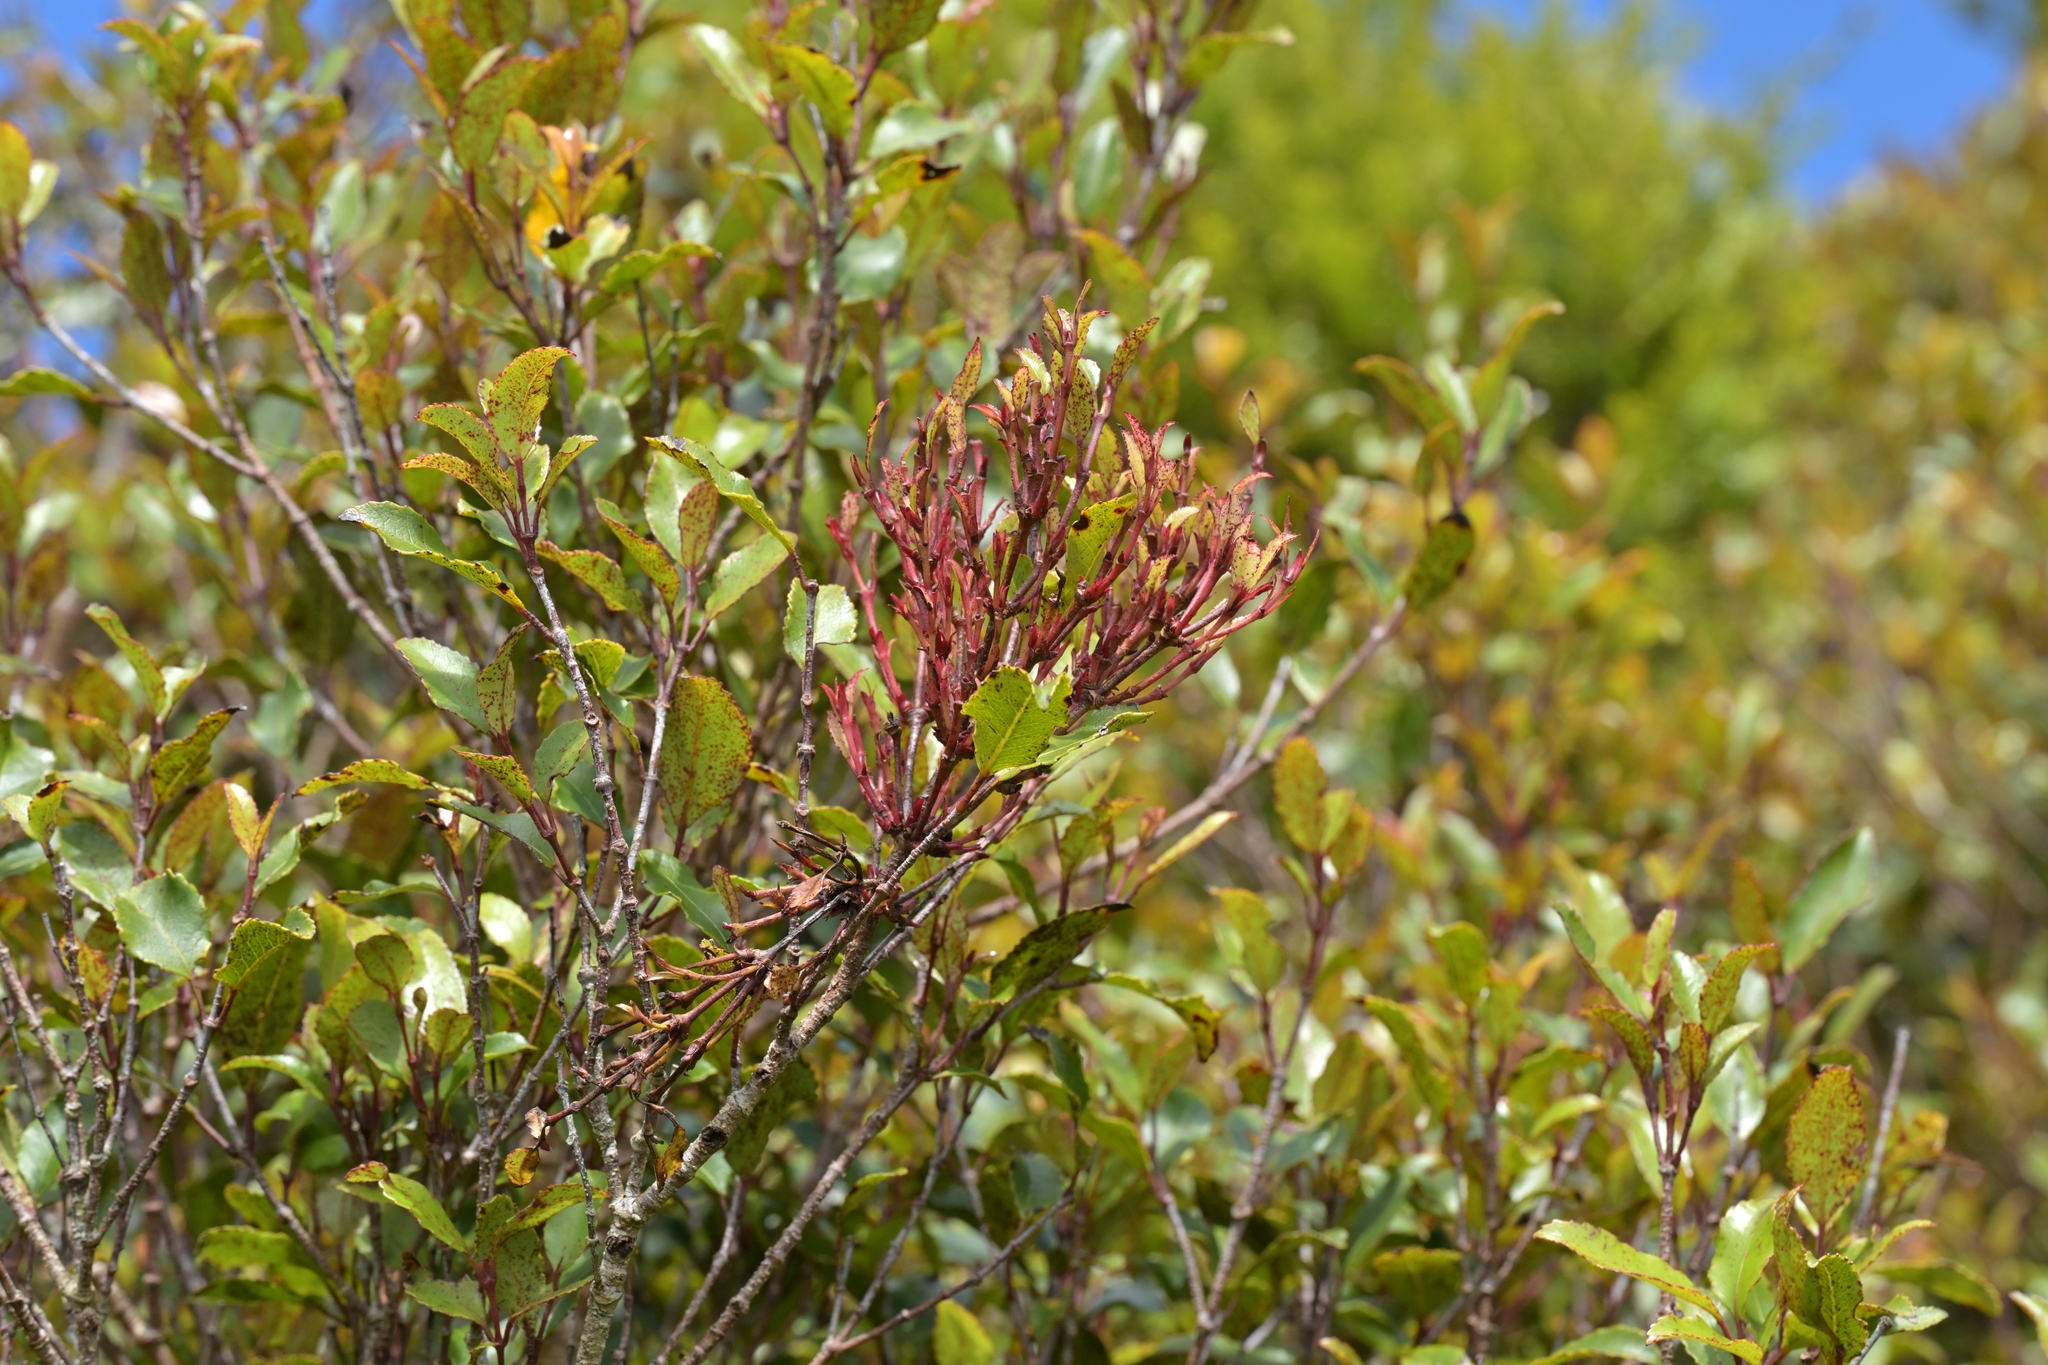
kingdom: Plantae
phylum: Tracheophyta
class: Magnoliopsida
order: Oxalidales
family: Cunoniaceae
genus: Pterophylla
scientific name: Pterophylla racemosa
